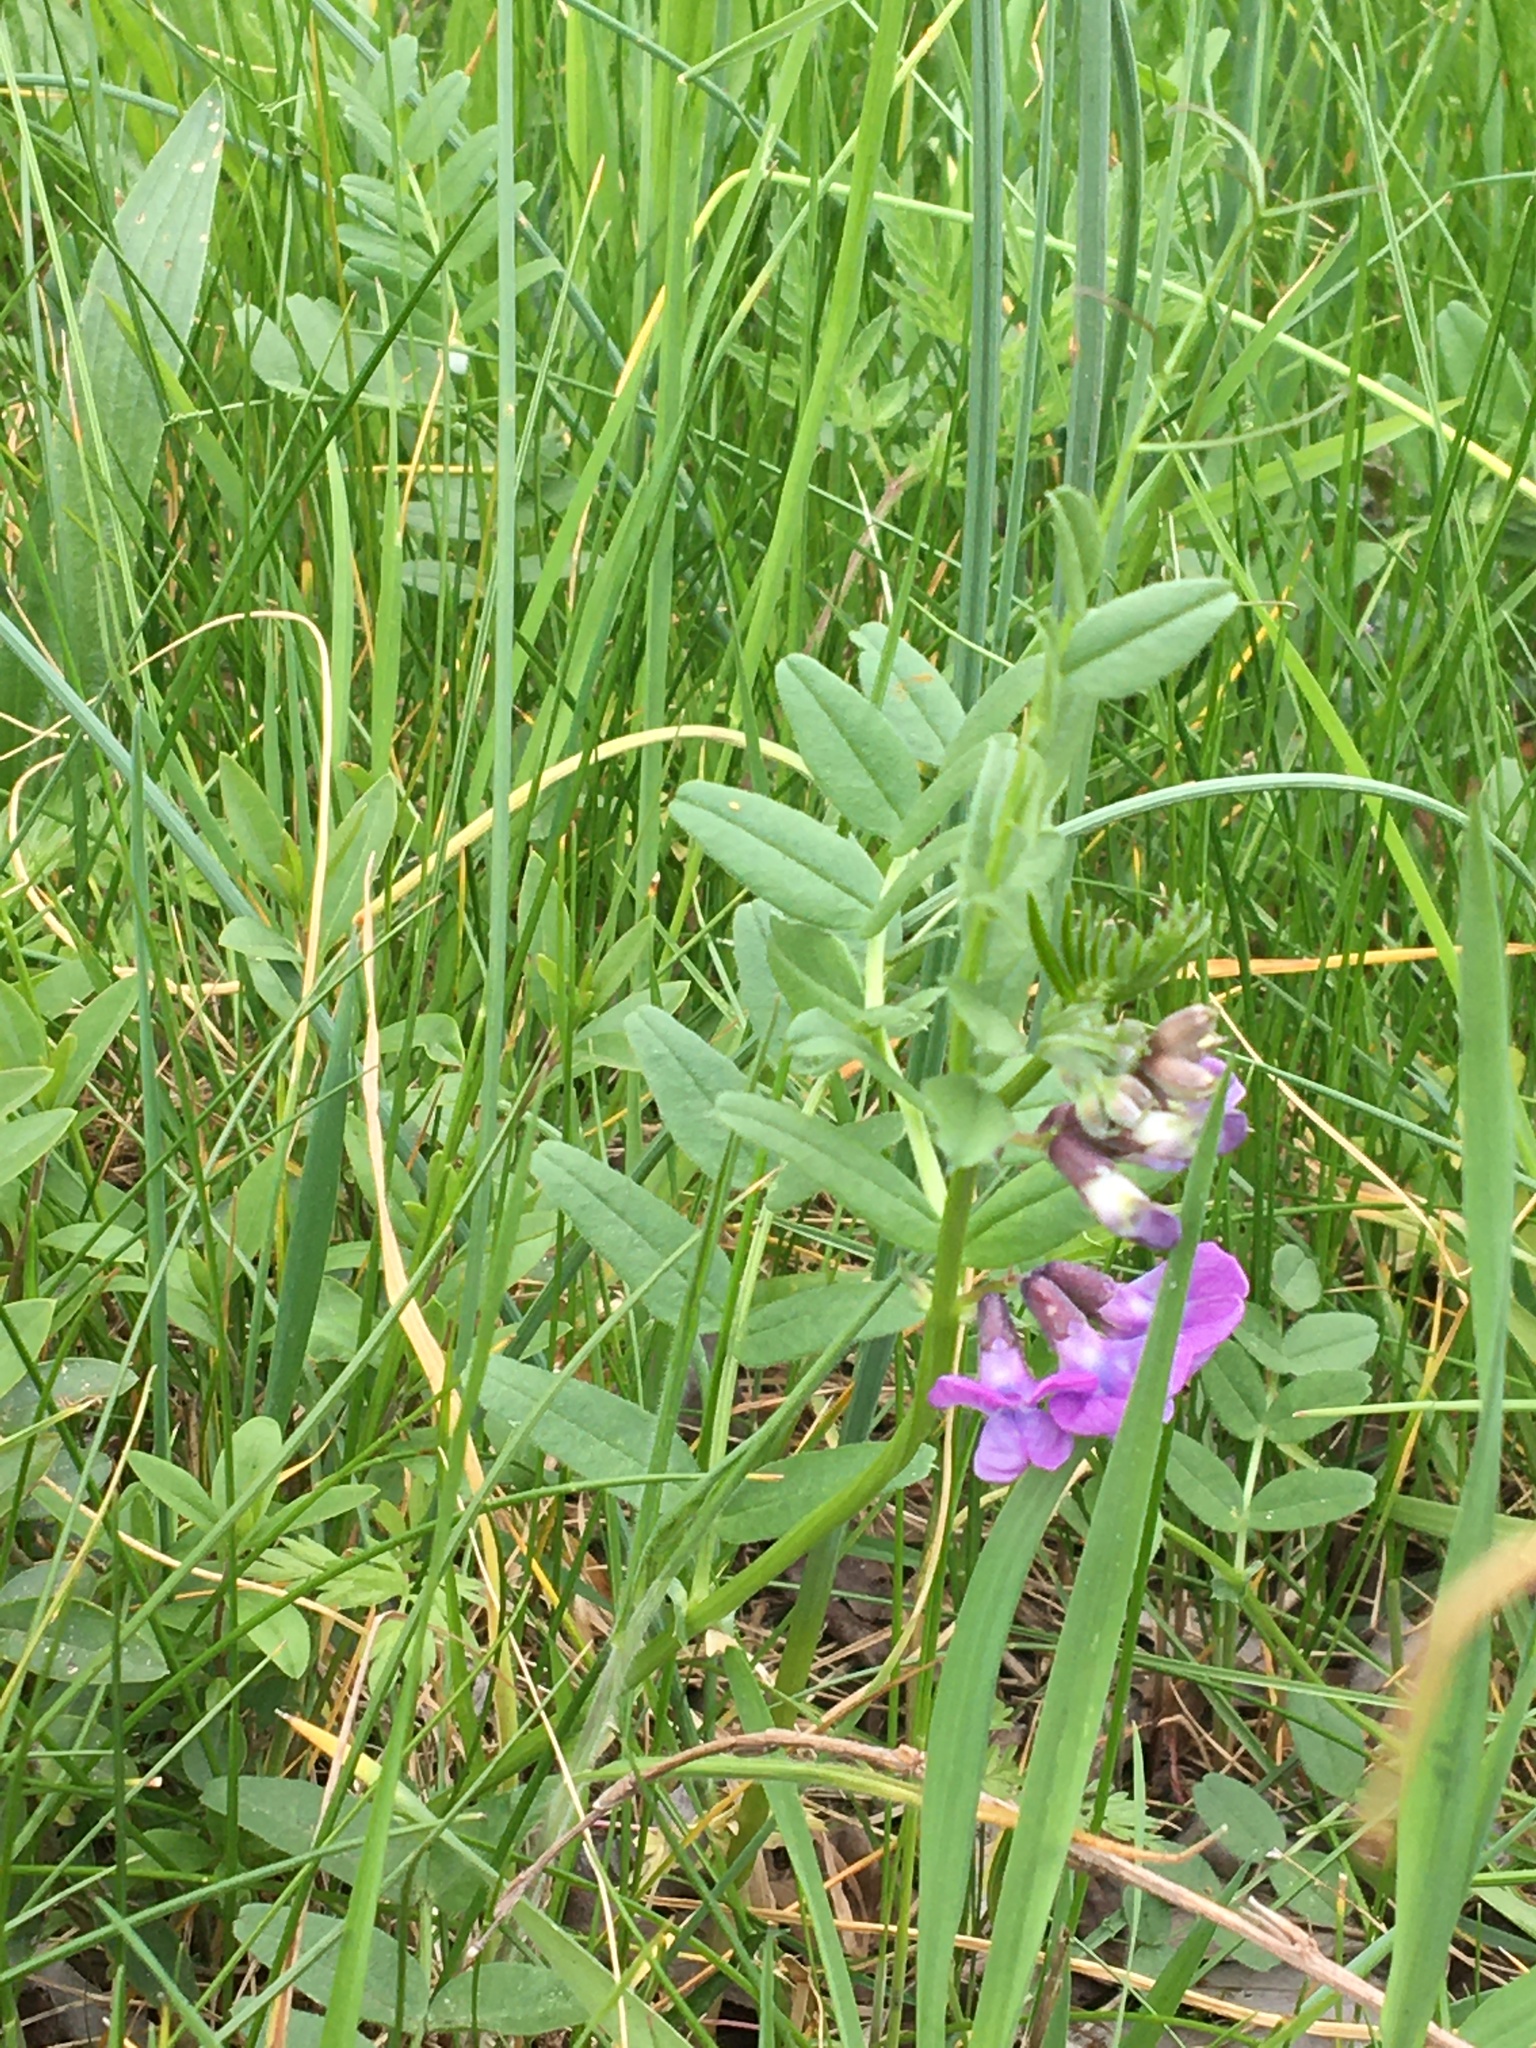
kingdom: Plantae
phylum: Tracheophyta
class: Magnoliopsida
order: Fabales
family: Fabaceae
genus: Vicia
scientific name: Vicia sepium
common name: Bush vetch
